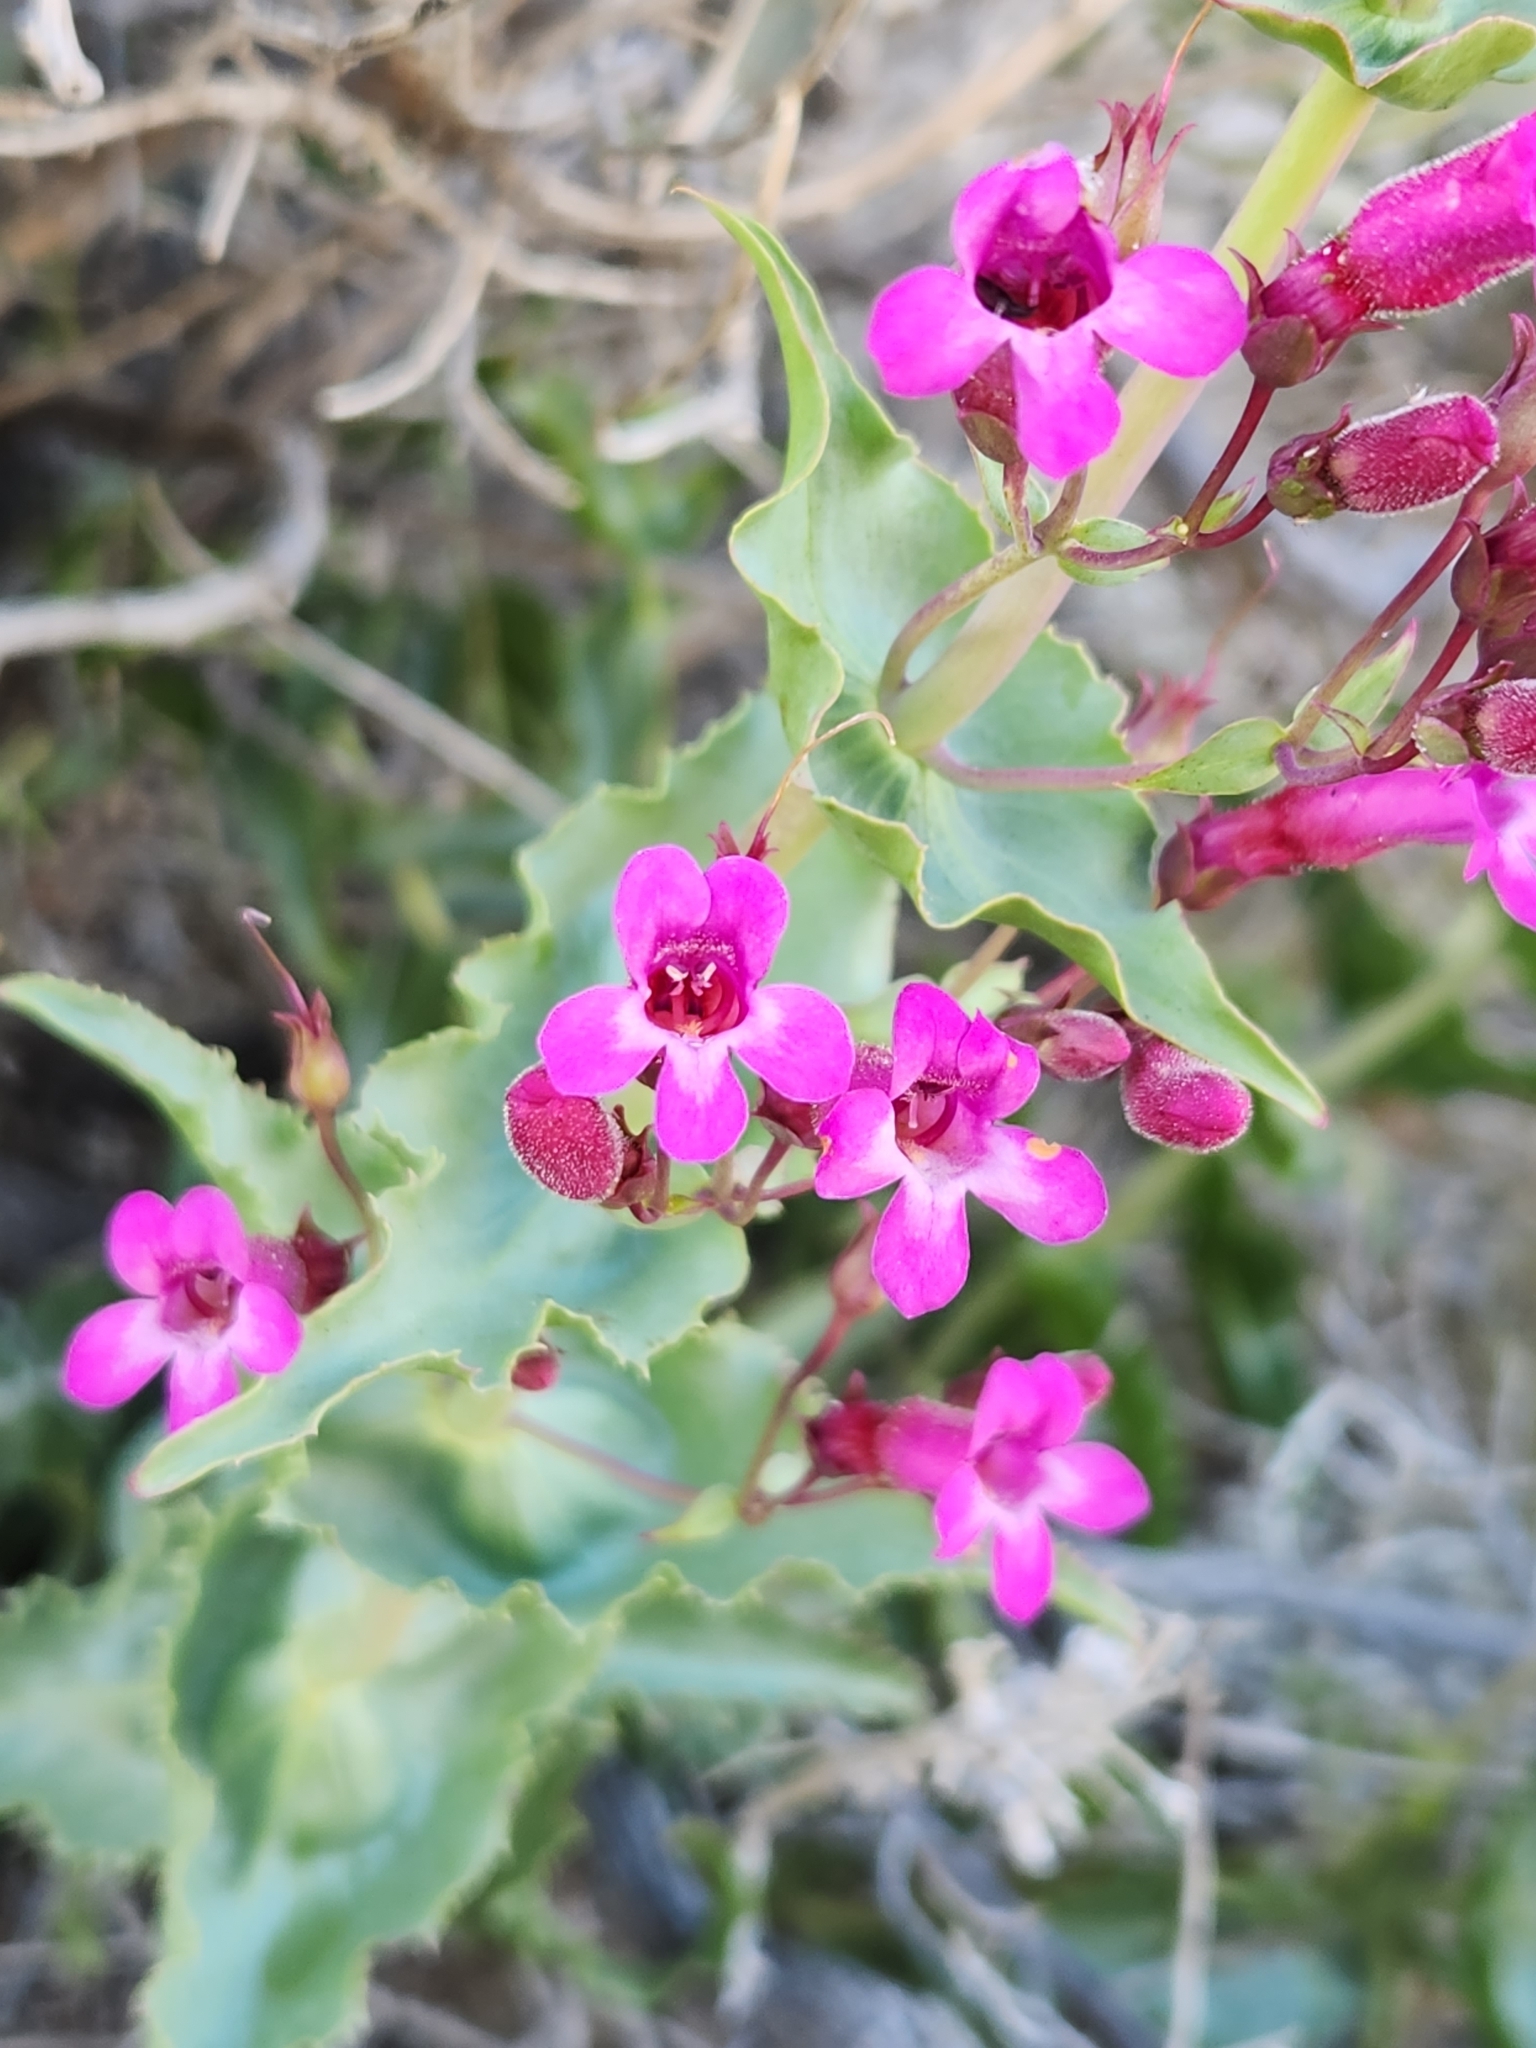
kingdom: Plantae
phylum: Tracheophyta
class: Magnoliopsida
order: Lamiales
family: Plantaginaceae
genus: Penstemon
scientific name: Penstemon clevelandii
